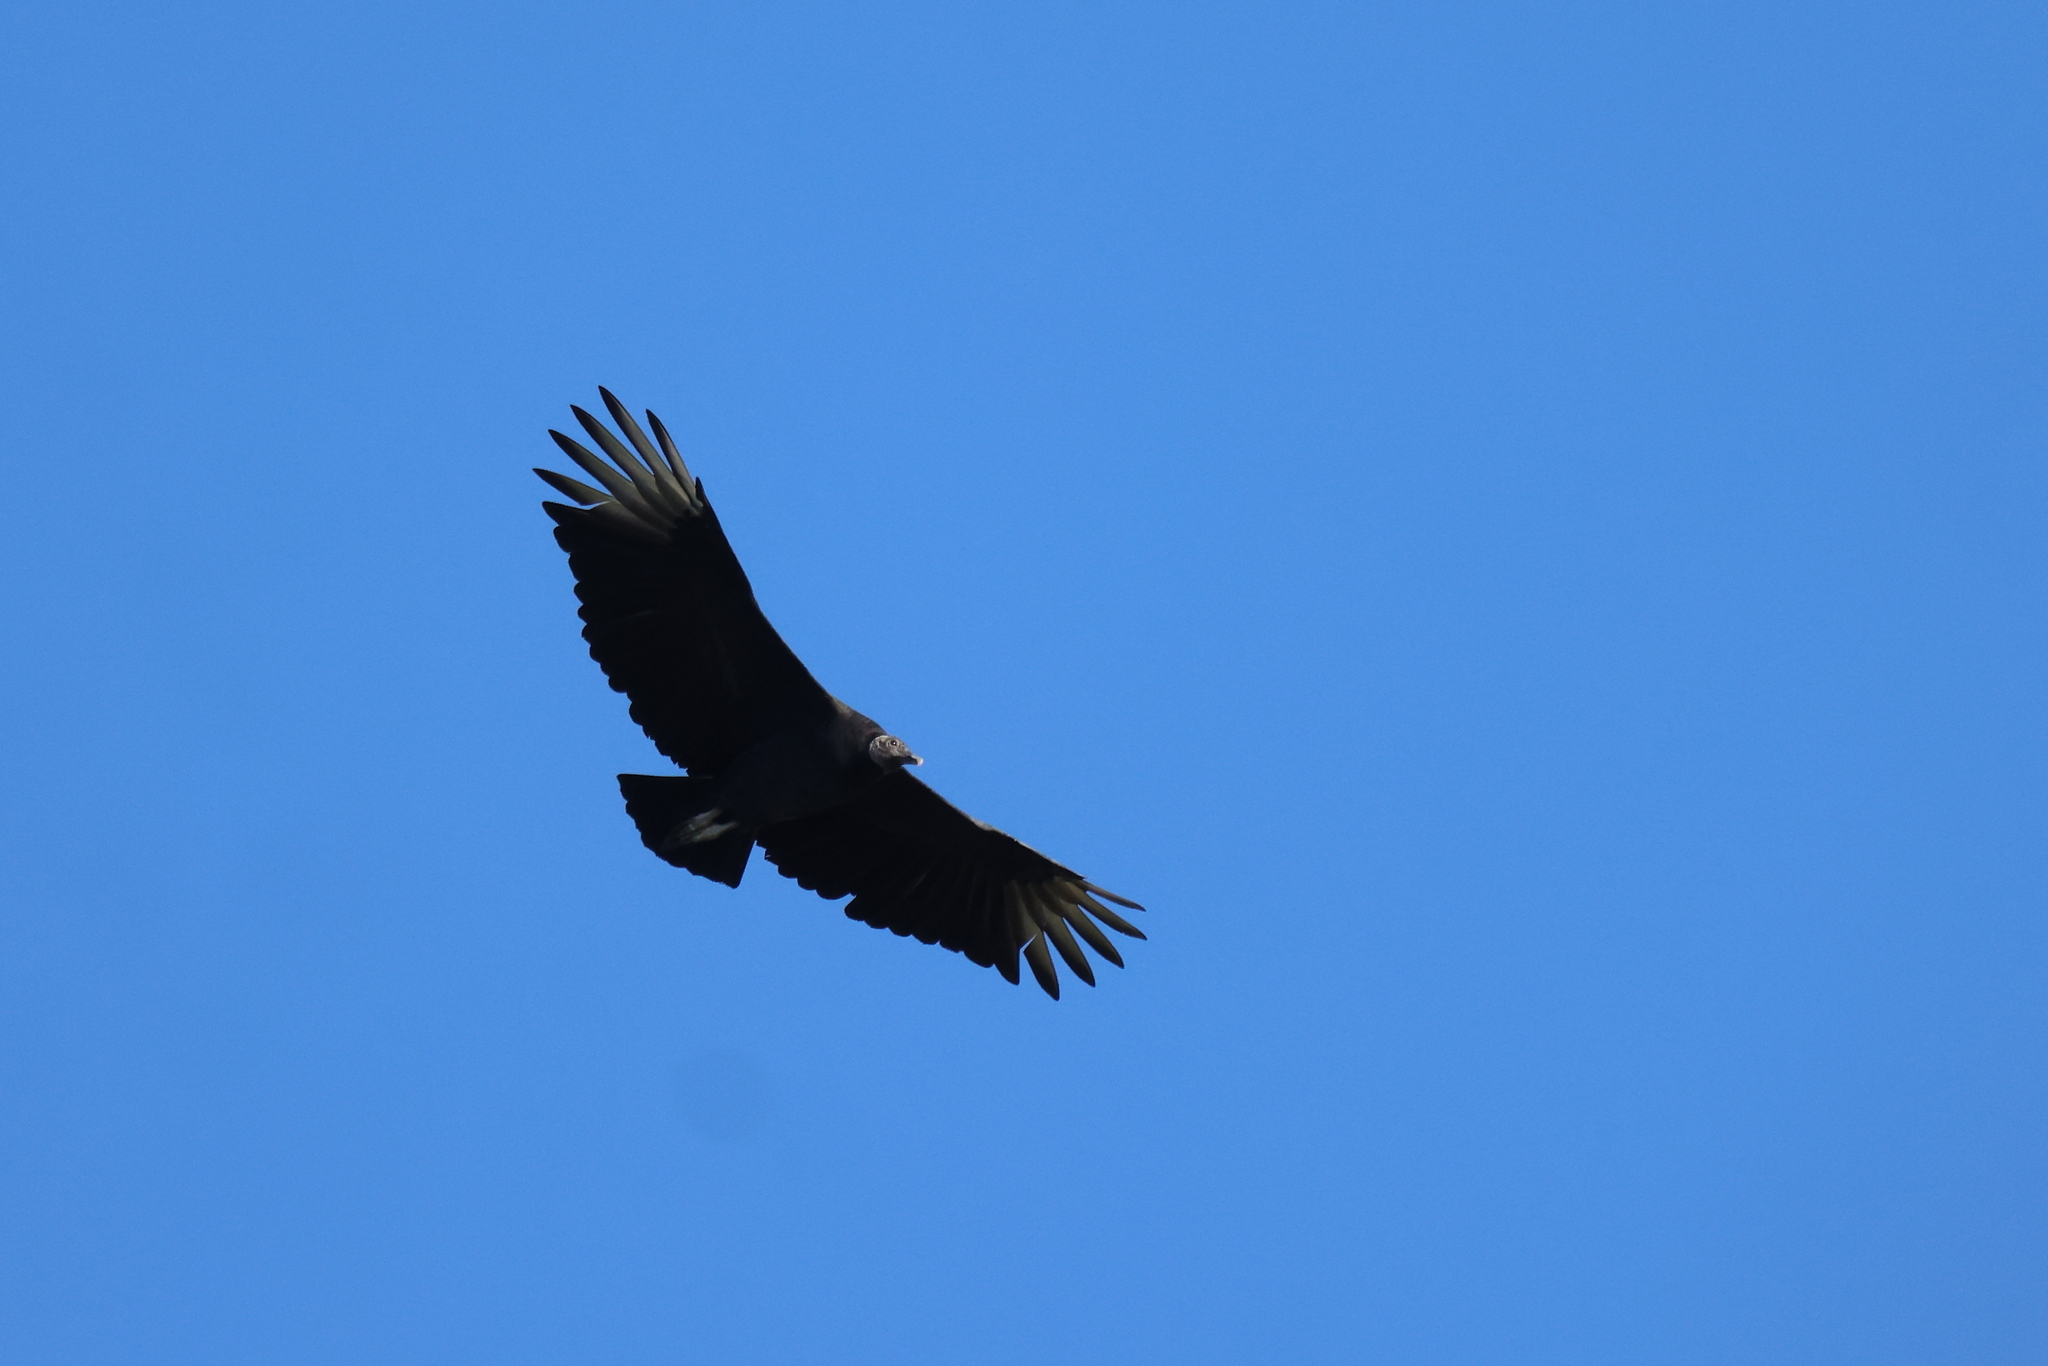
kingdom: Animalia
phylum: Chordata
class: Aves
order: Accipitriformes
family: Cathartidae
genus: Coragyps
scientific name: Coragyps atratus
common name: Black vulture
